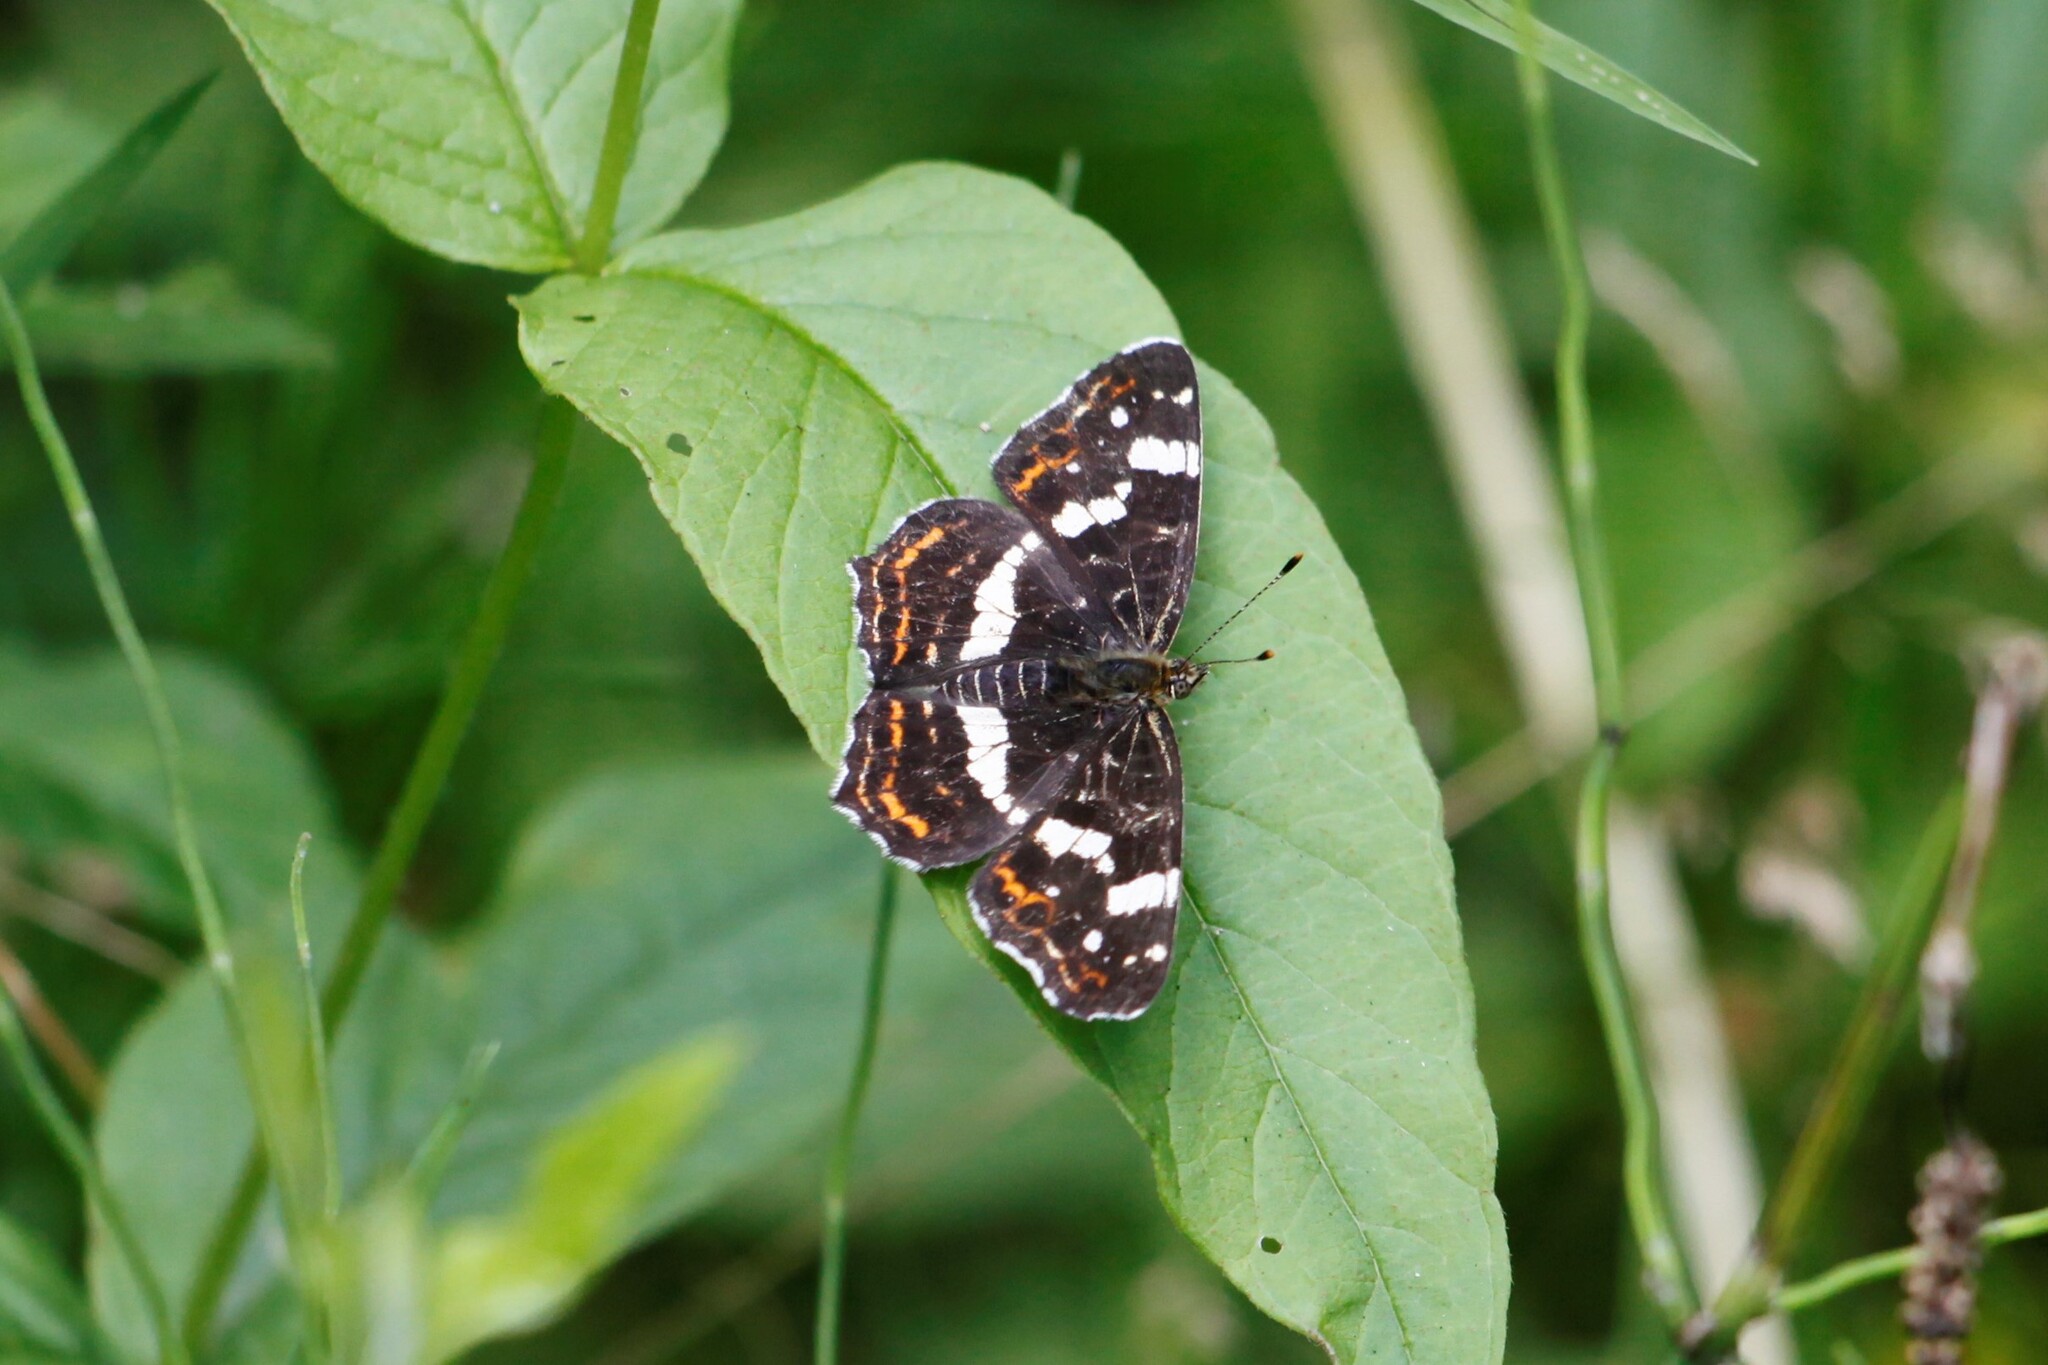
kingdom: Animalia
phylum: Arthropoda
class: Insecta
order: Lepidoptera
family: Nymphalidae
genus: Araschnia
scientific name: Araschnia levana
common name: Map butterfly
